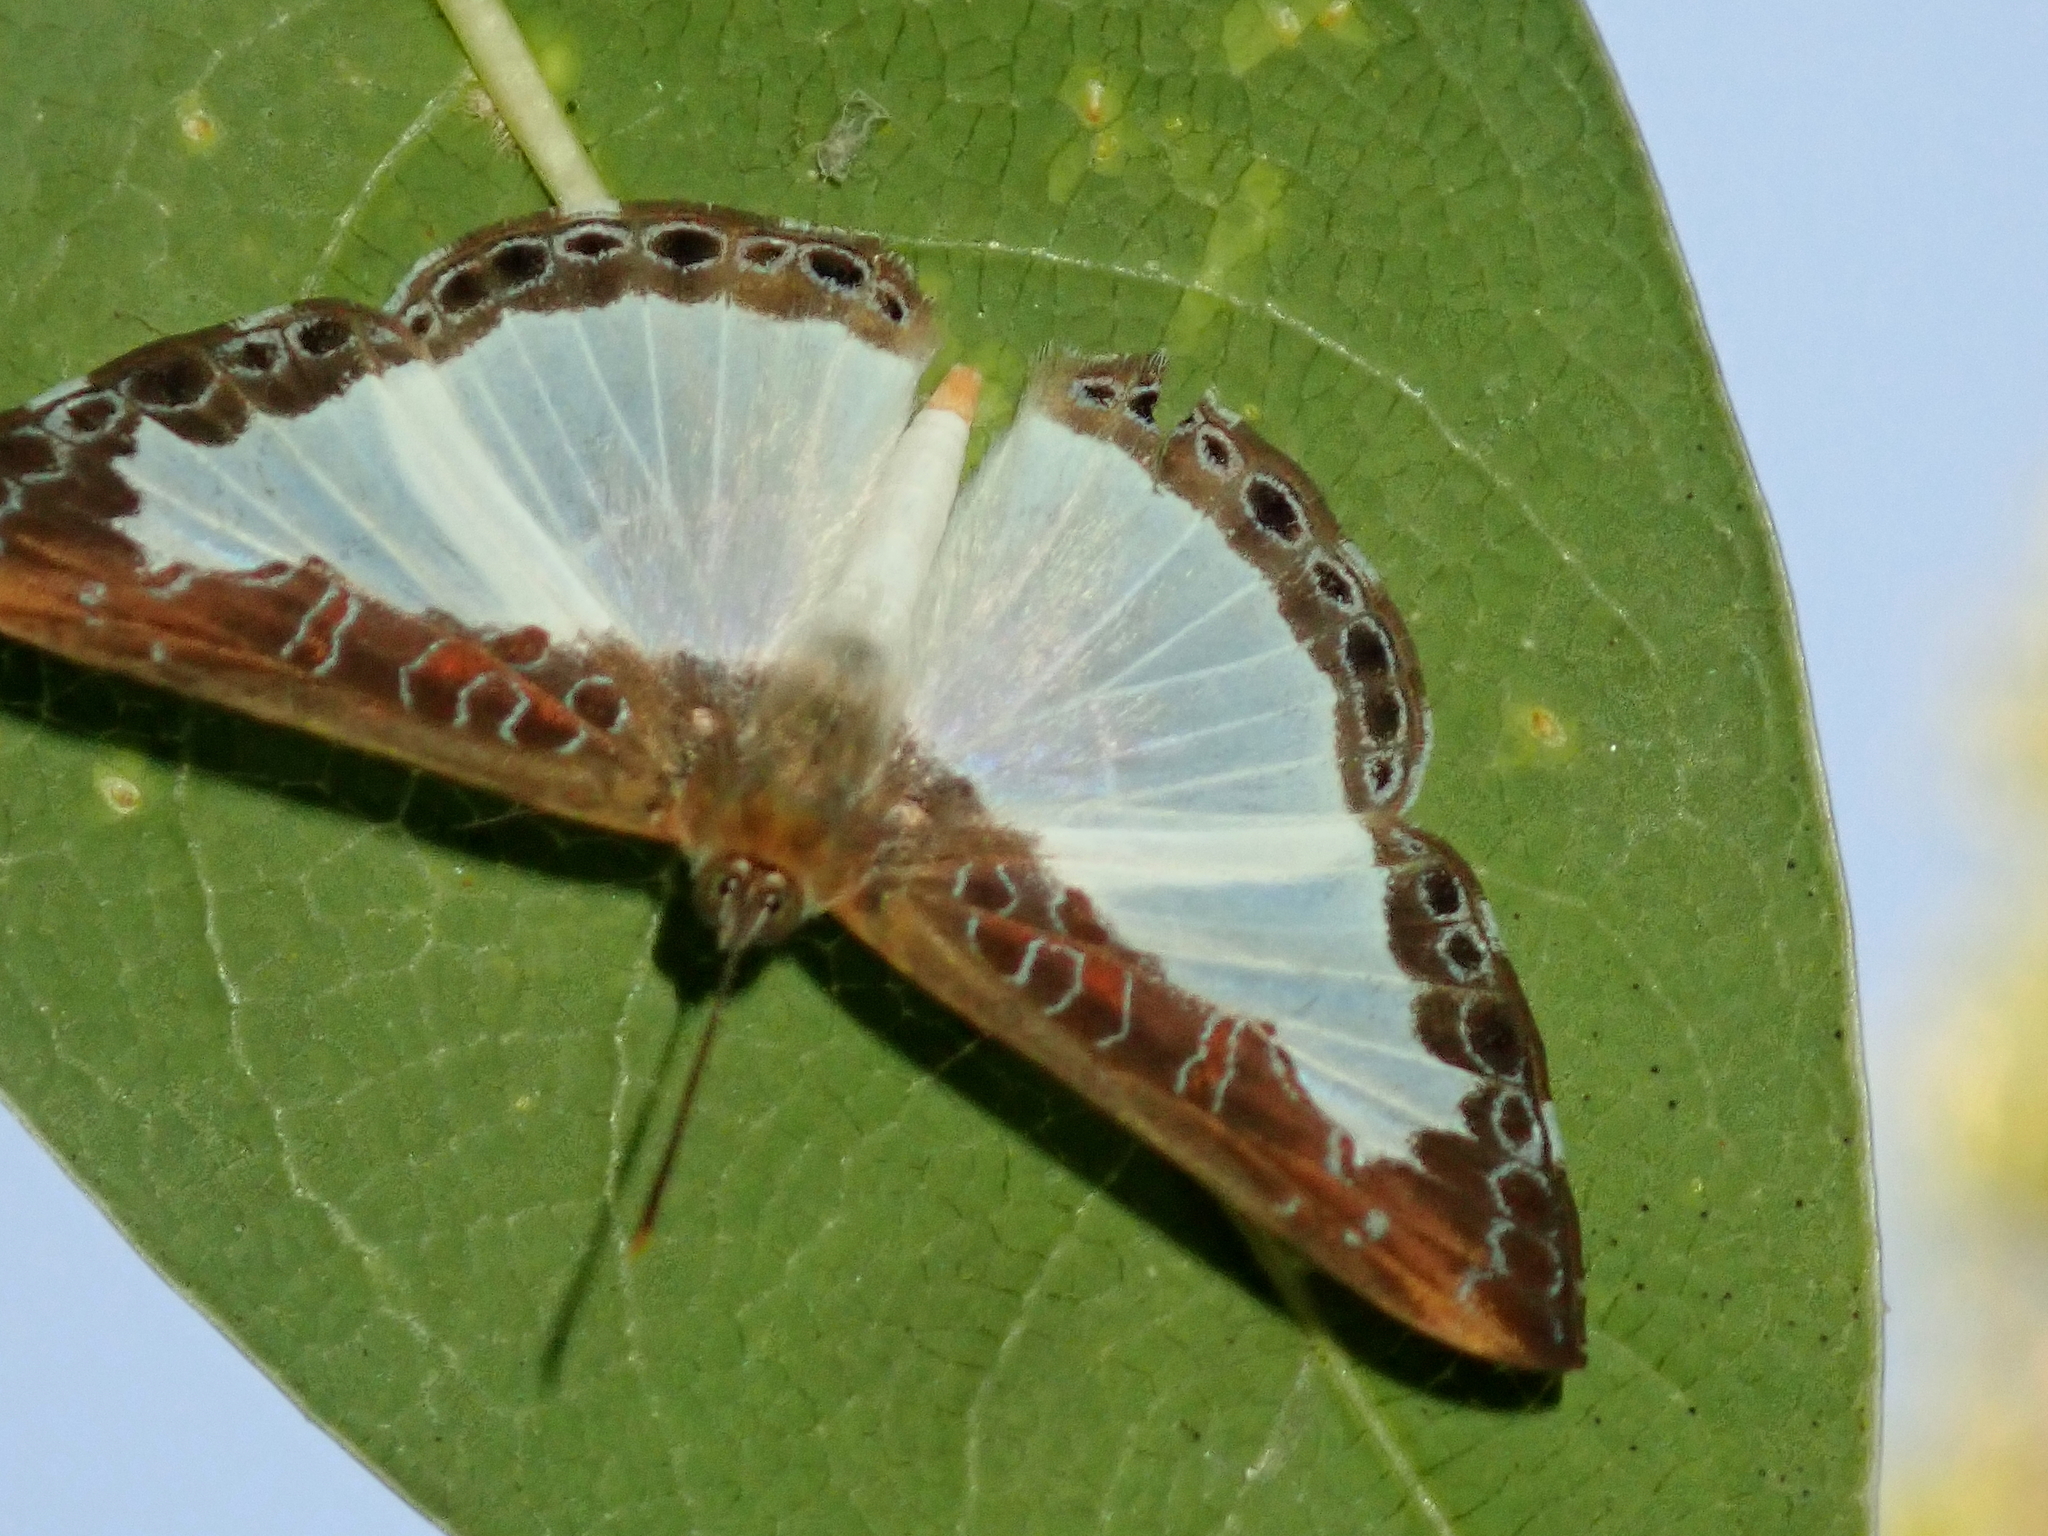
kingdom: Animalia
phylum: Arthropoda
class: Insecta
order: Lepidoptera
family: Riodinidae
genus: Juditha
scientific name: Juditha lamis
